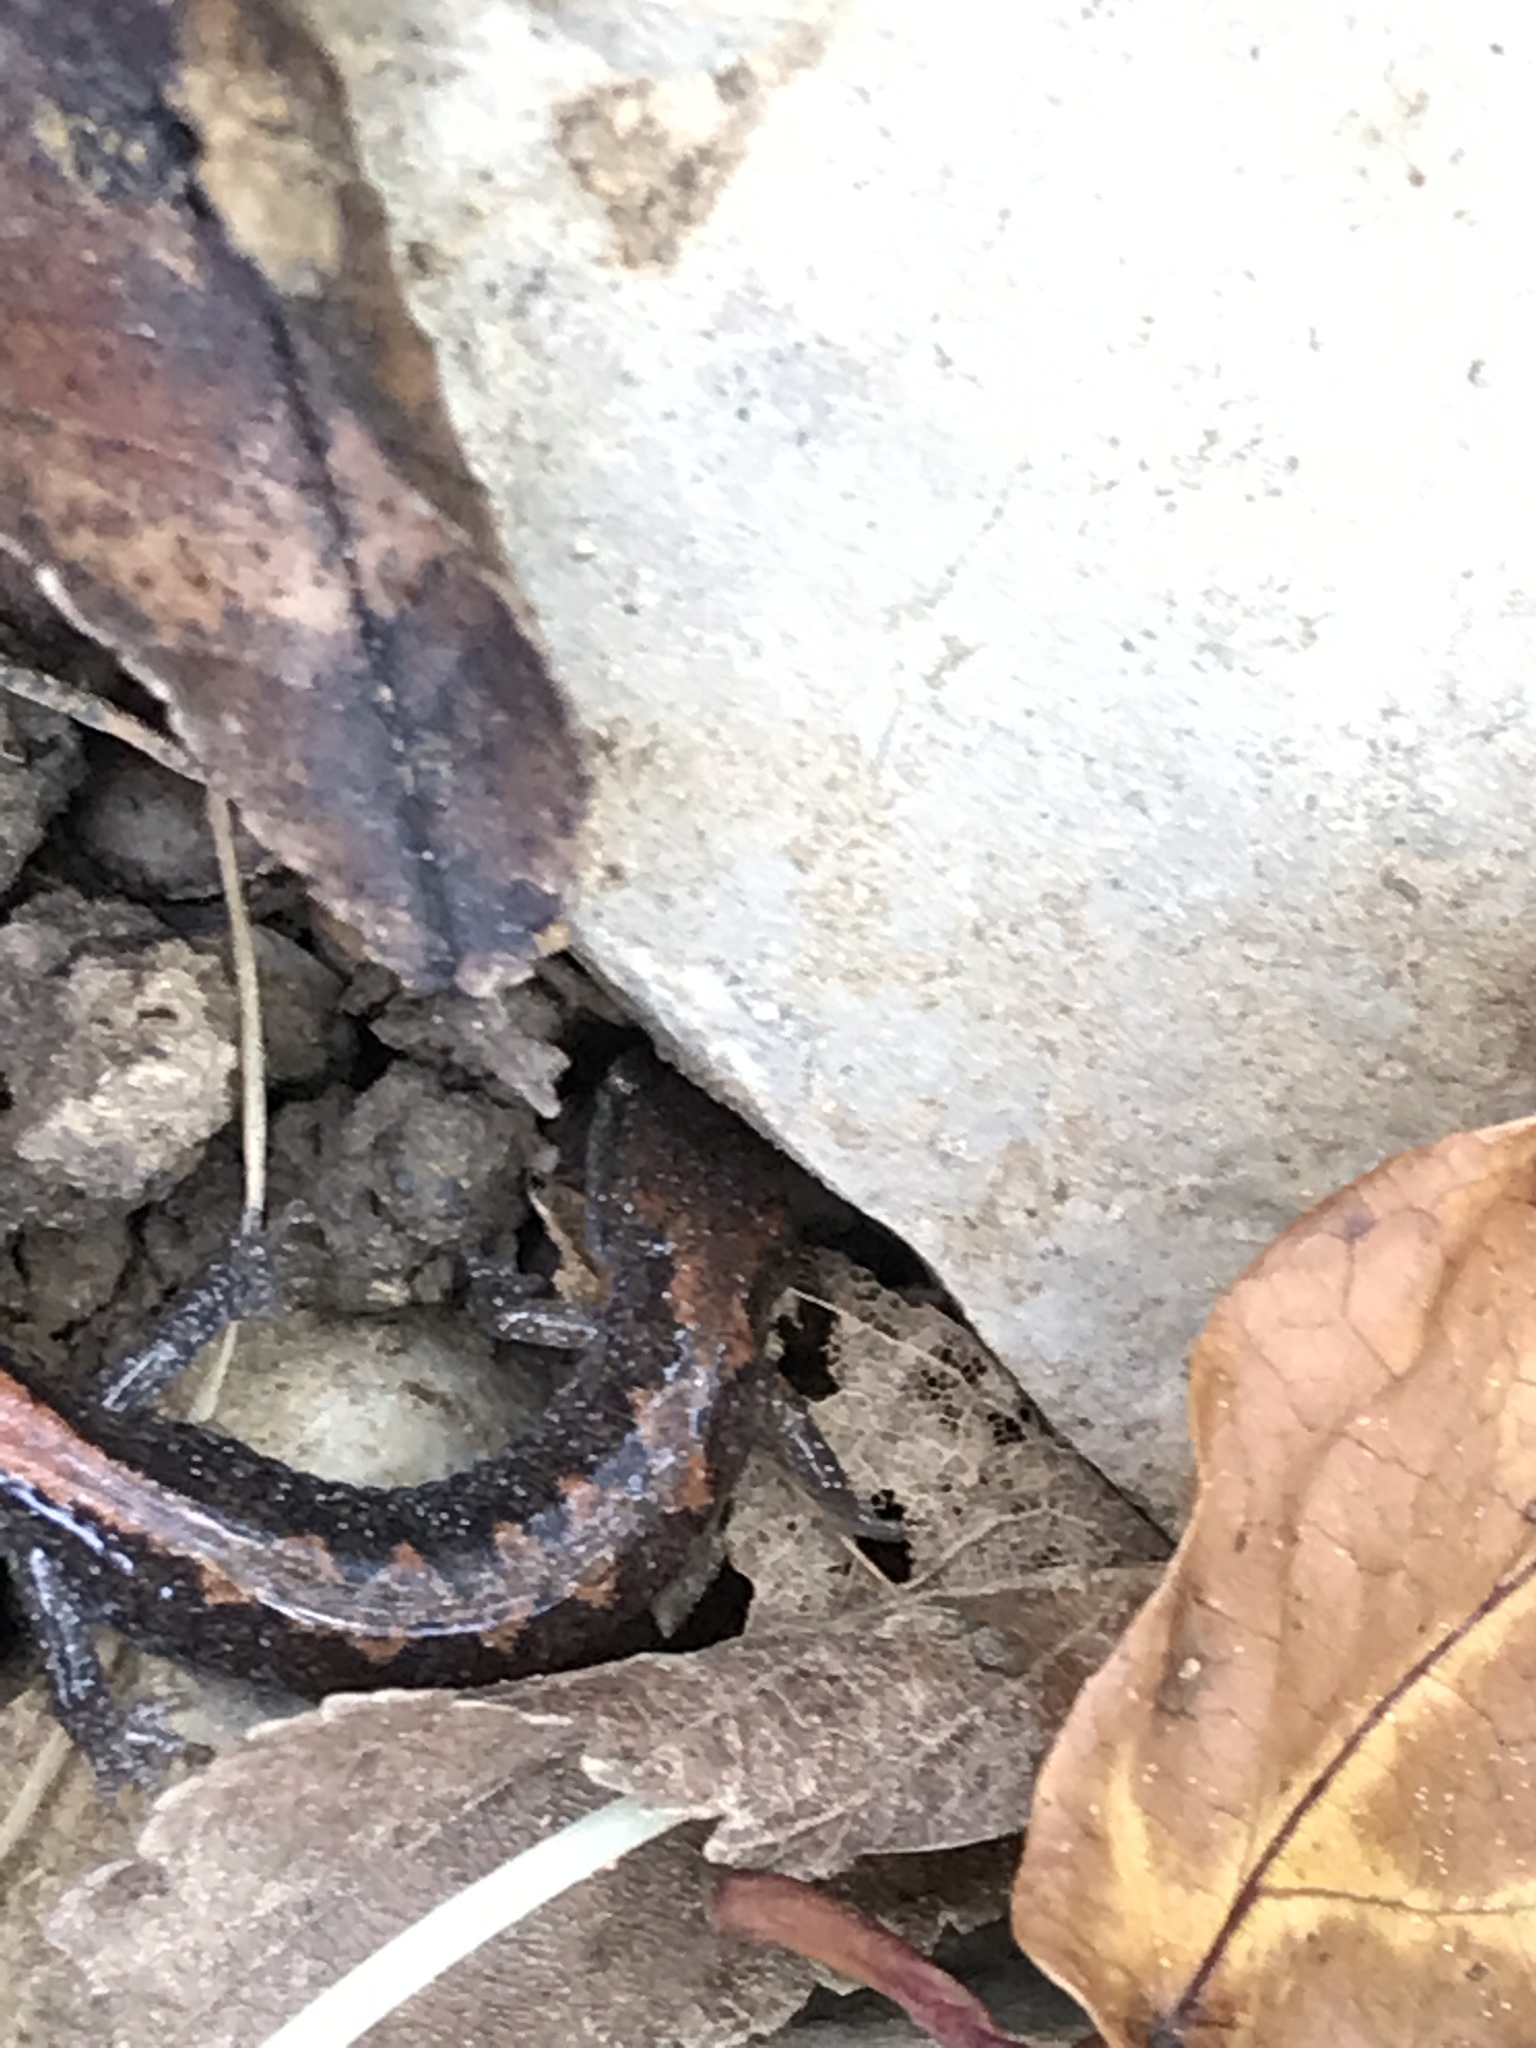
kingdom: Animalia
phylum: Chordata
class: Amphibia
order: Caudata
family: Plethodontidae
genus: Plethodon
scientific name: Plethodon dorsalis
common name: Northern zigzag salamander
